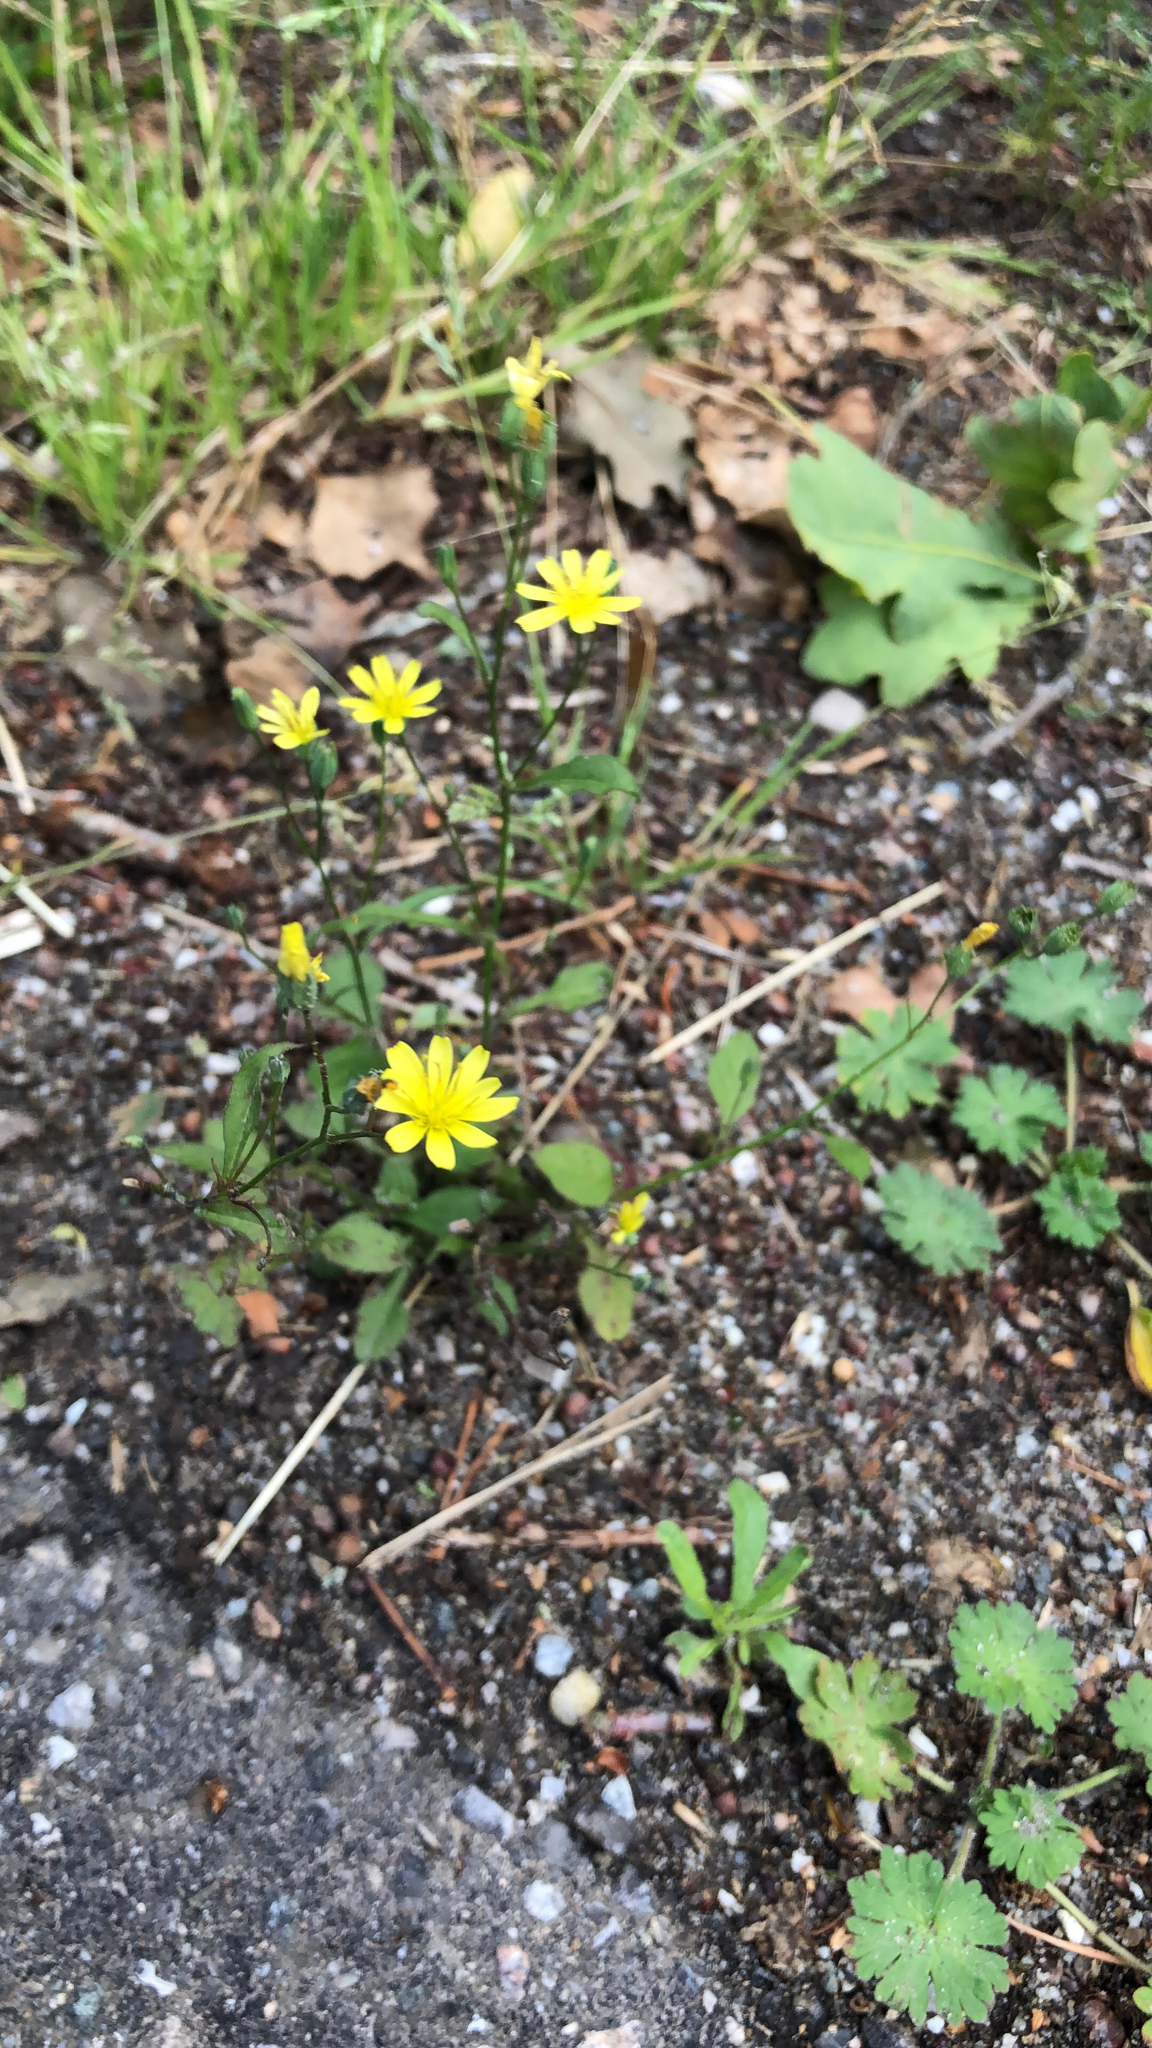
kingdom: Plantae
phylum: Tracheophyta
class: Magnoliopsida
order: Asterales
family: Asteraceae
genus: Lapsana
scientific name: Lapsana communis
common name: Nipplewort
